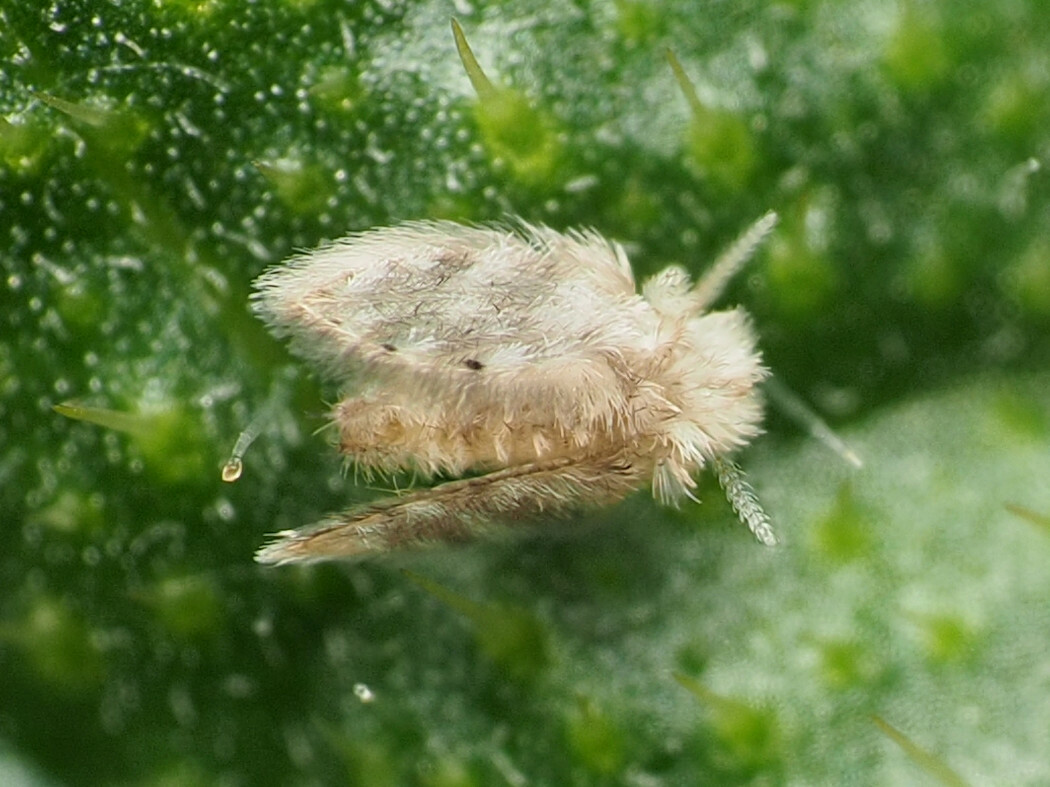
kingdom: Animalia
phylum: Arthropoda
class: Insecta
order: Diptera
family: Psychodidae
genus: Psychoda
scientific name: Psychoda alternata
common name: Moth fly
